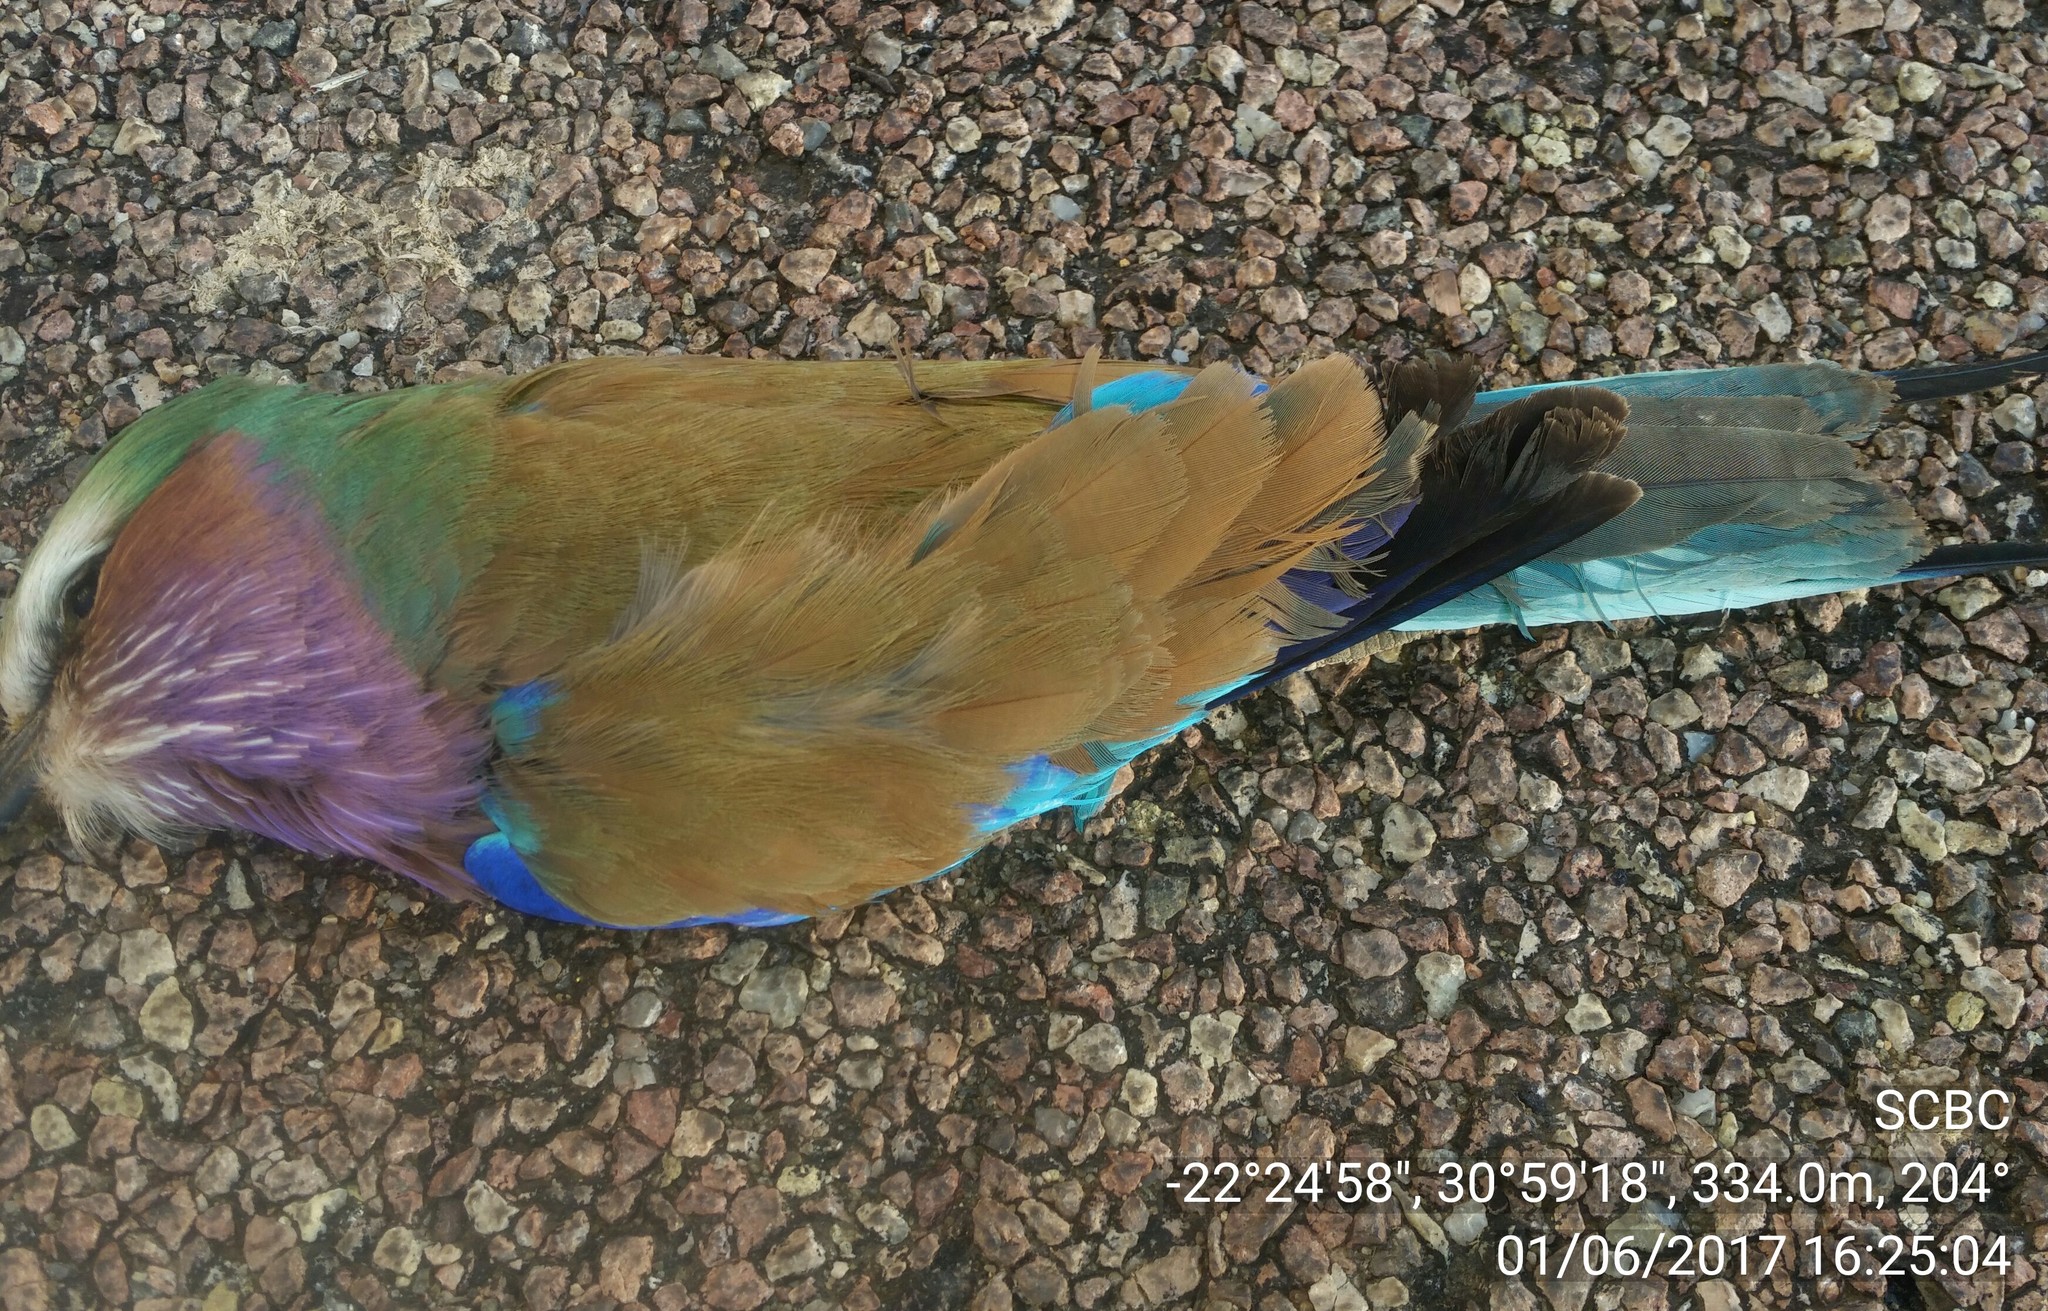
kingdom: Animalia
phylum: Chordata
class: Aves
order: Coraciiformes
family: Coraciidae
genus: Coracias
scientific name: Coracias caudatus
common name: Lilac-breasted roller
